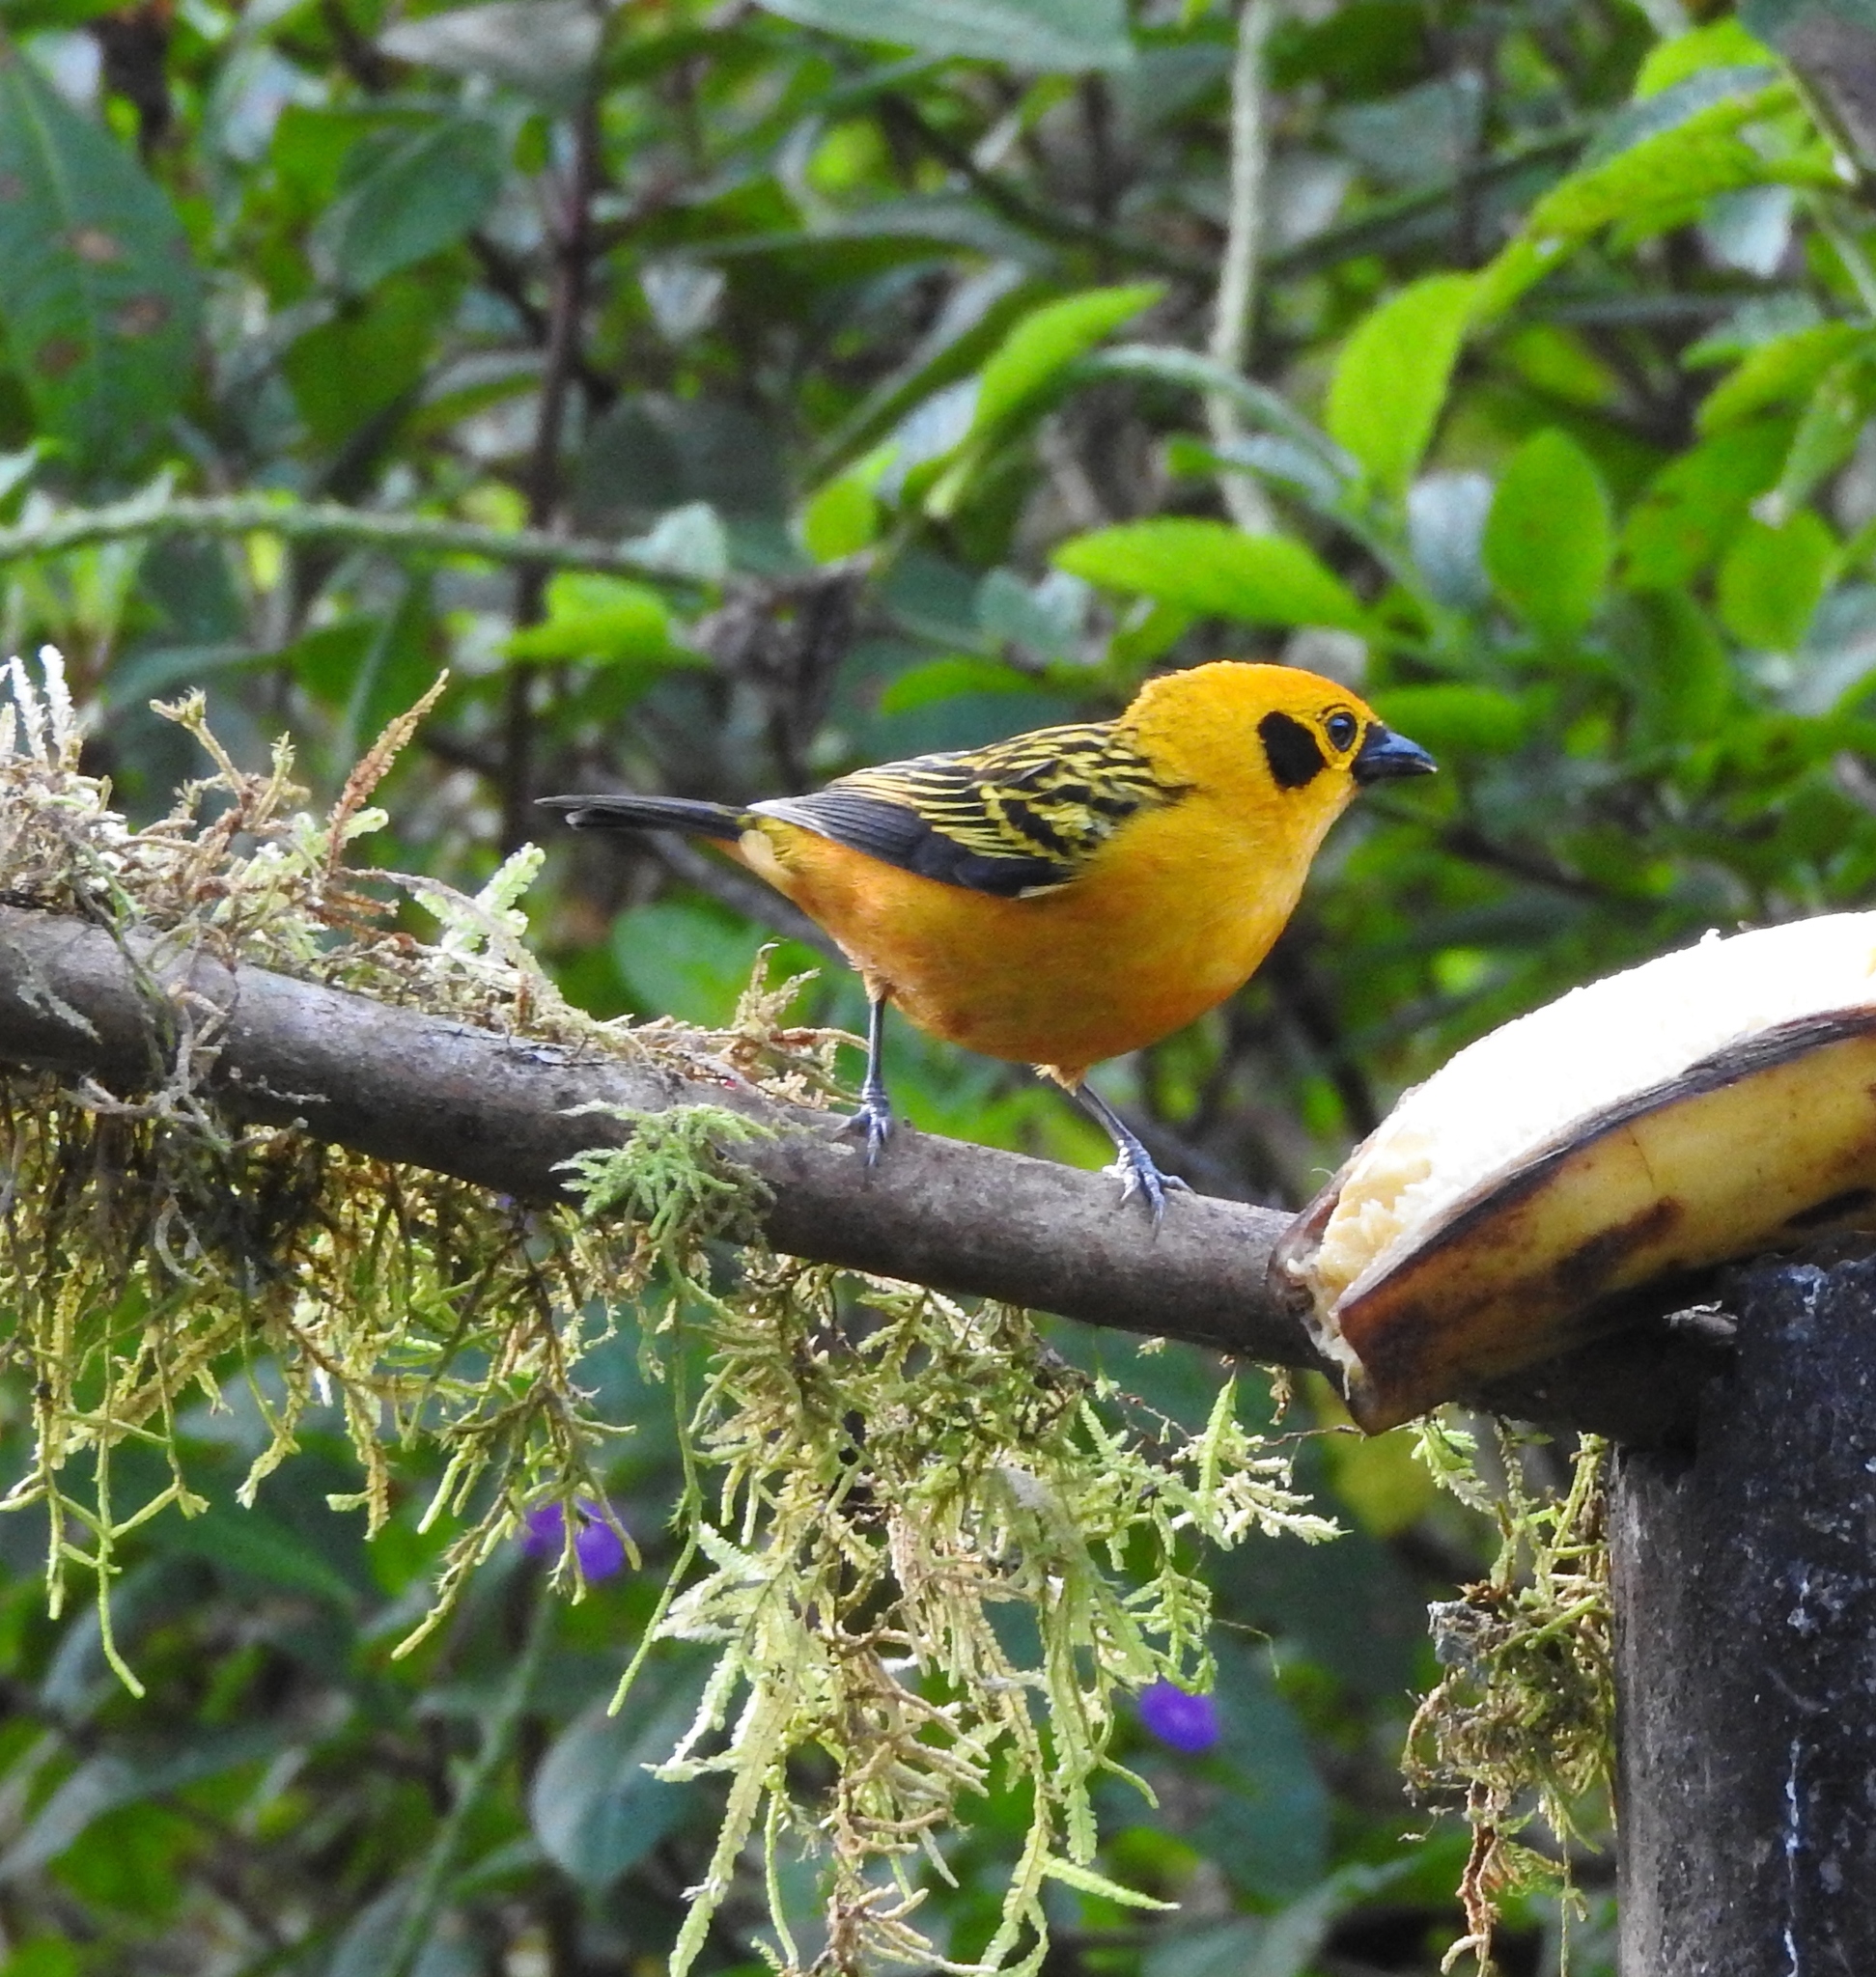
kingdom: Animalia
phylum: Chordata
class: Aves
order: Passeriformes
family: Thraupidae
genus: Tangara
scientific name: Tangara arthus
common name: Golden tanager
